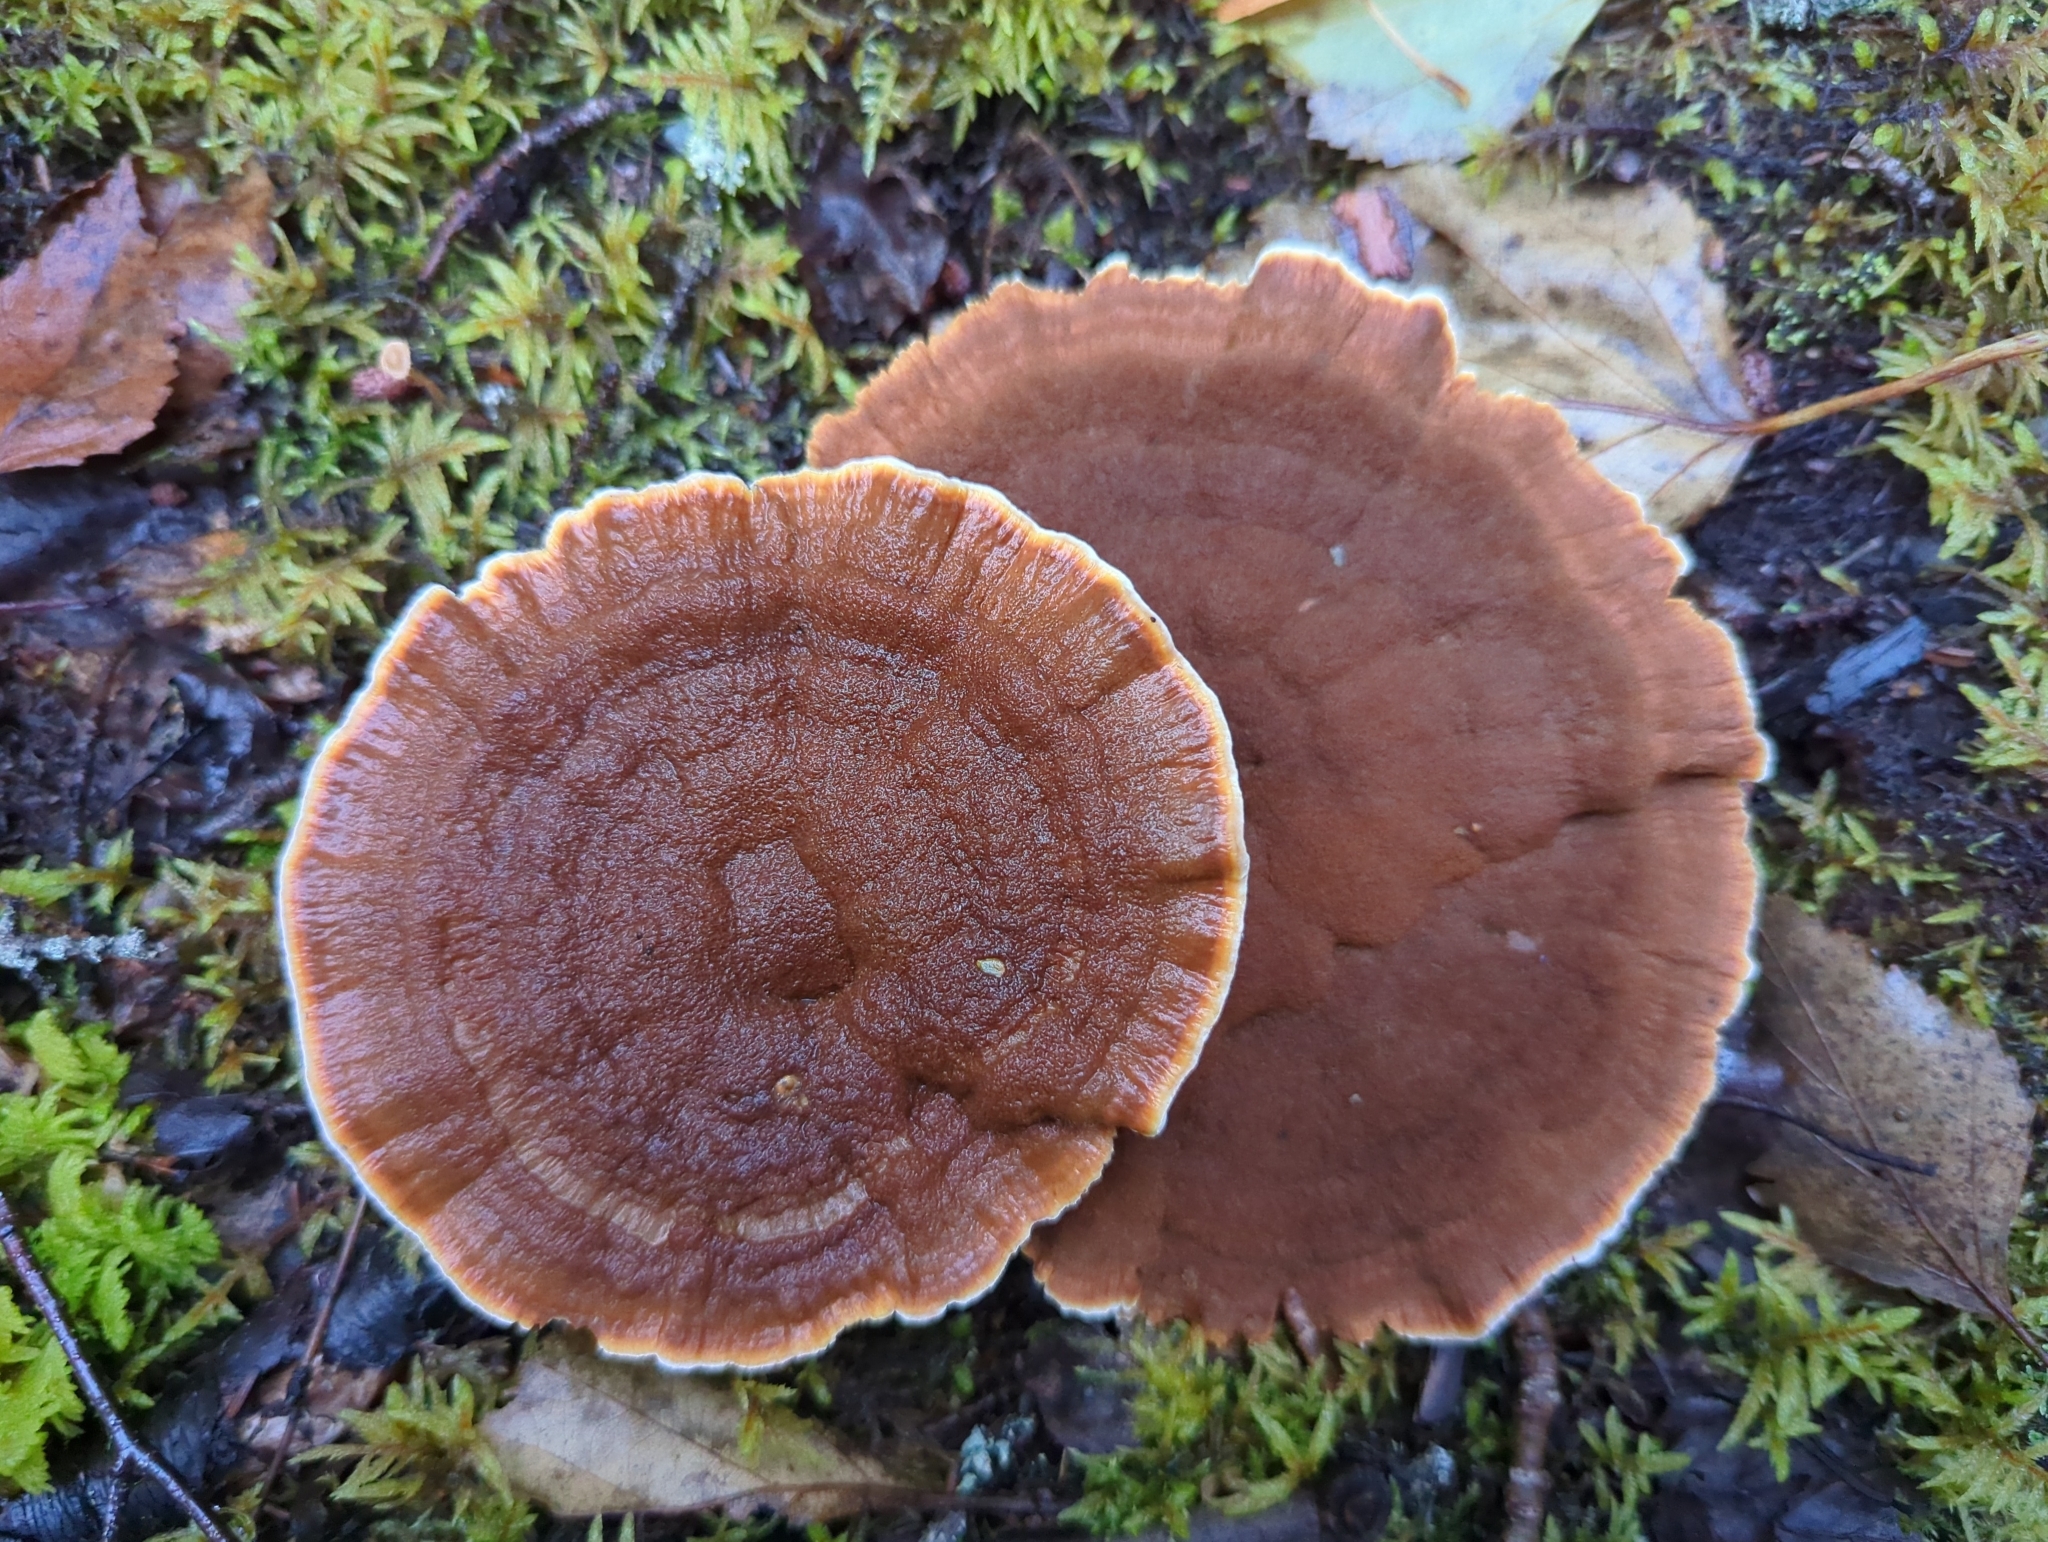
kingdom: Fungi
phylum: Basidiomycota
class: Agaricomycetes
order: Hymenochaetales
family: Hymenochaetaceae
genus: Onnia
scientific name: Onnia tomentosa
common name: Velvet rosette
